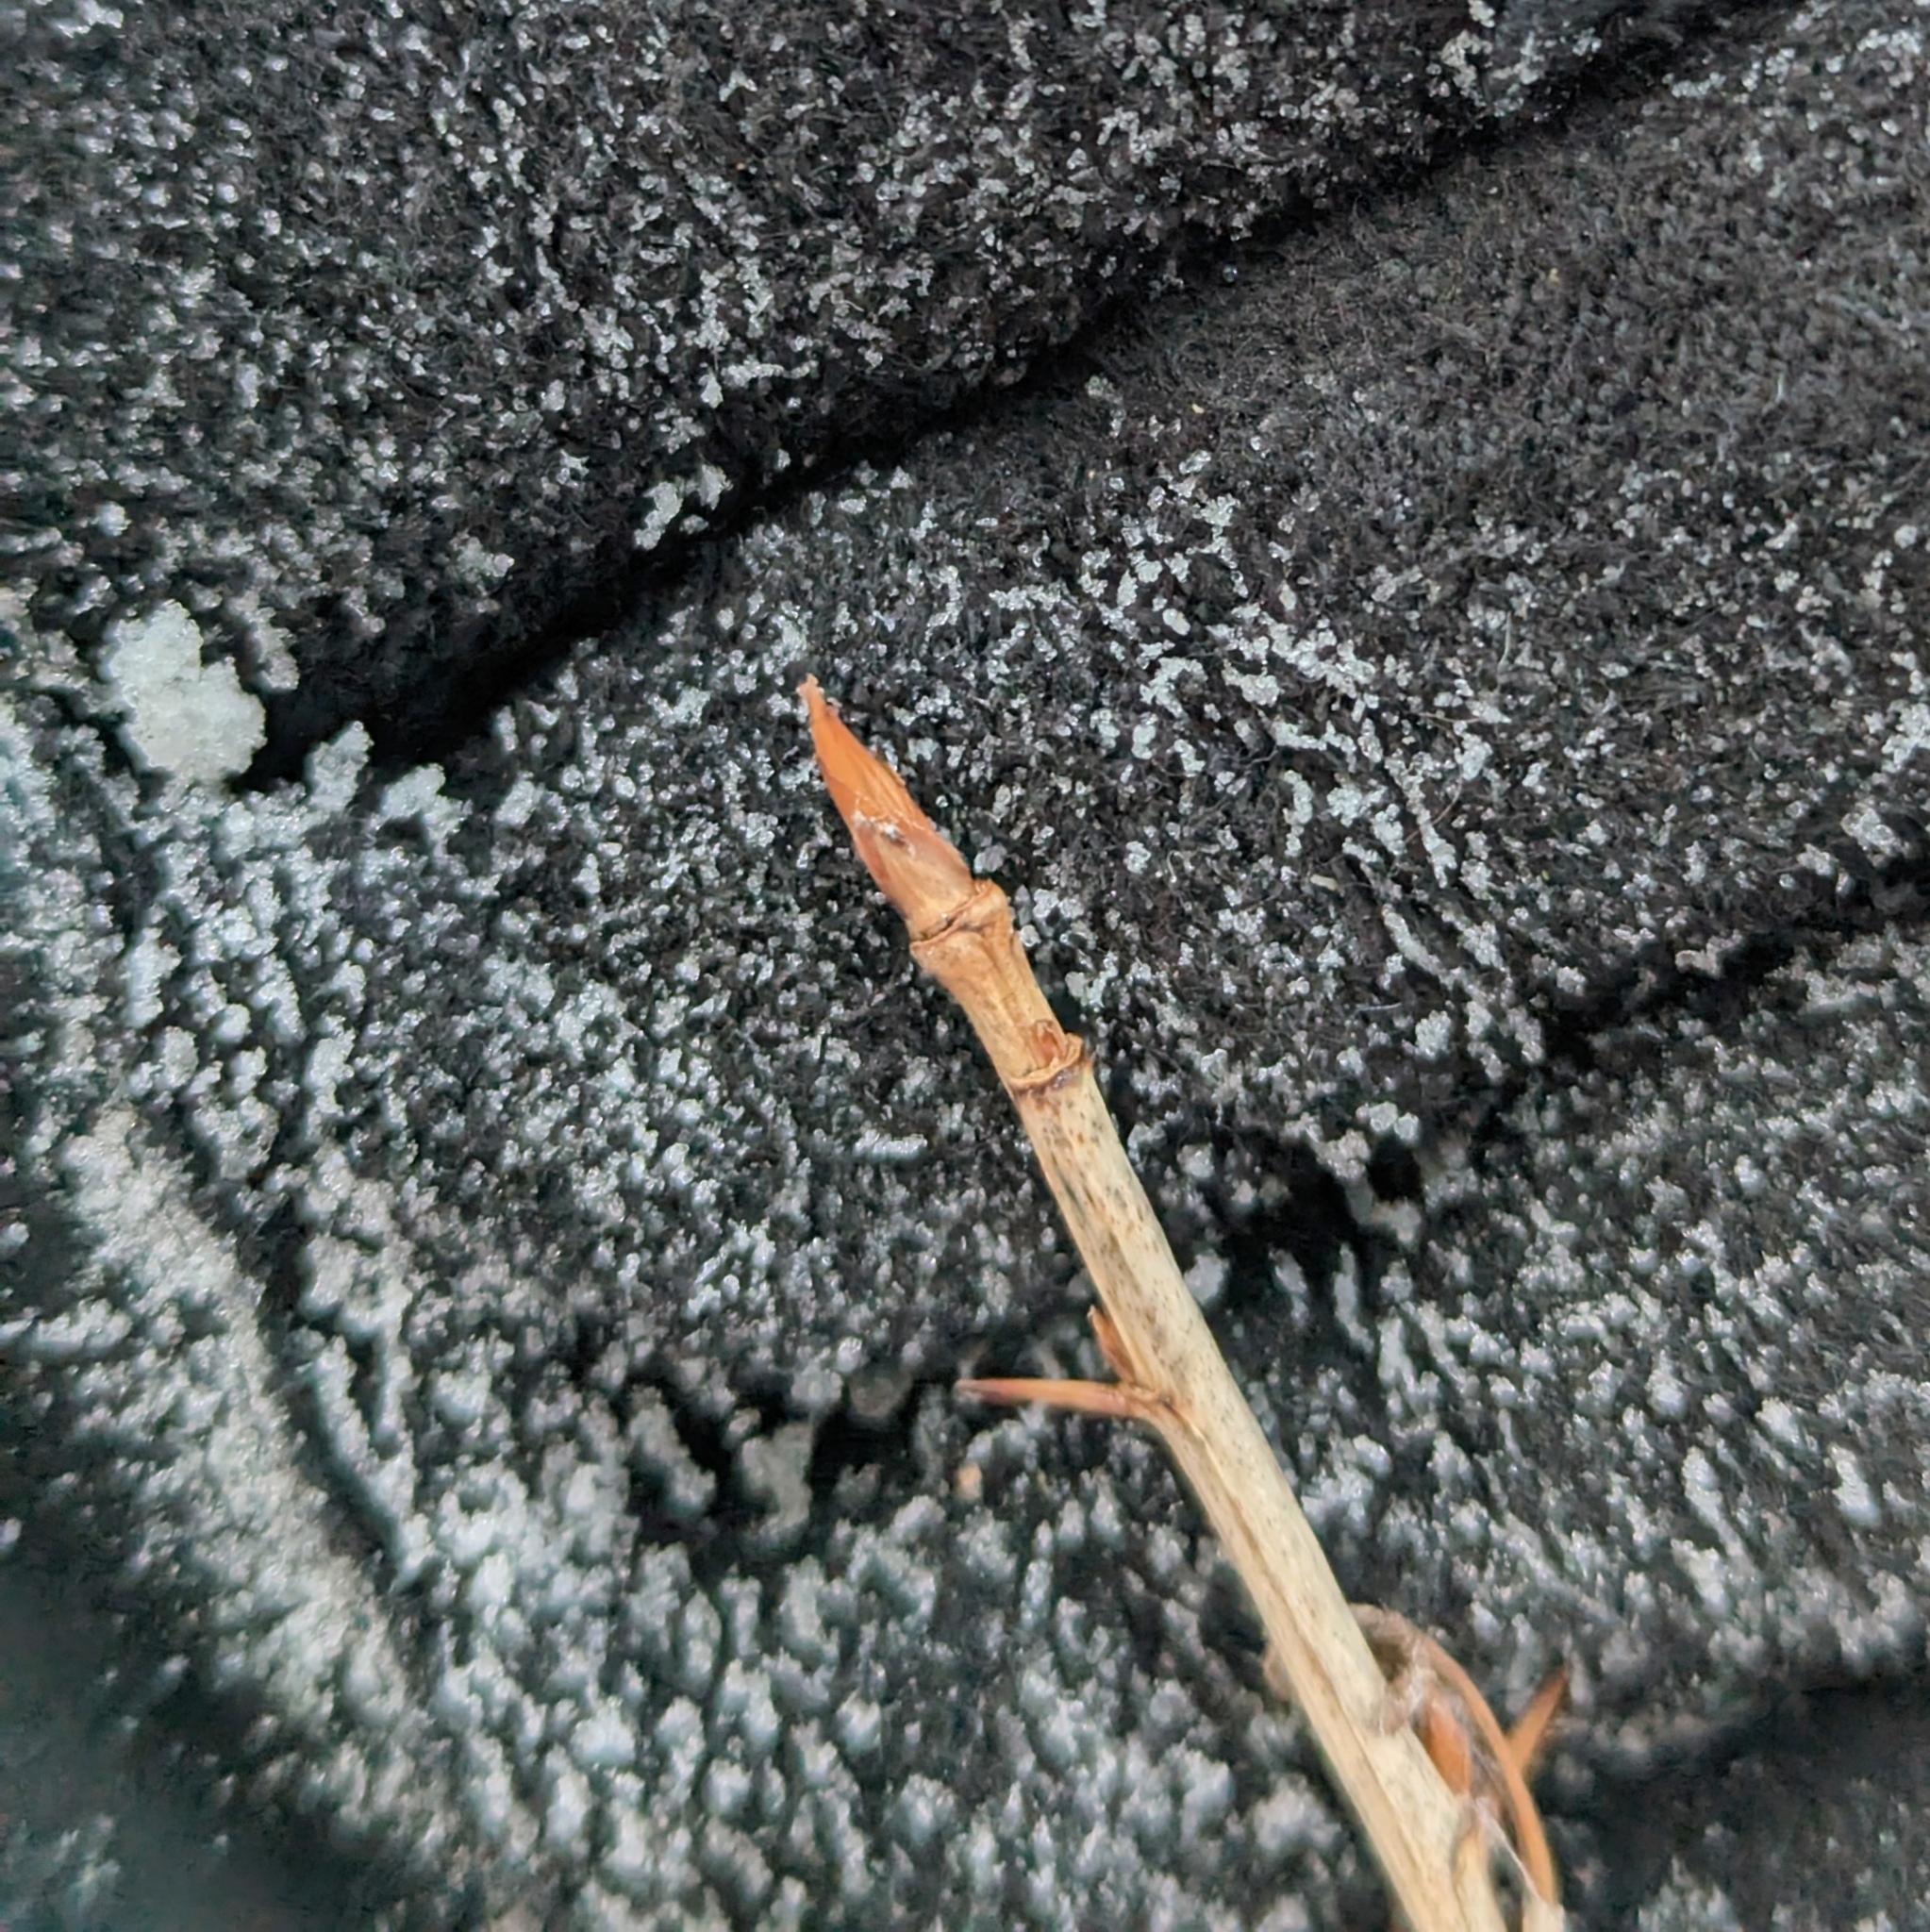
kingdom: Plantae
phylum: Tracheophyta
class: Magnoliopsida
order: Saxifragales
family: Grossulariaceae
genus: Ribes
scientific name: Ribes cynosbati
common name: American gooseberry
